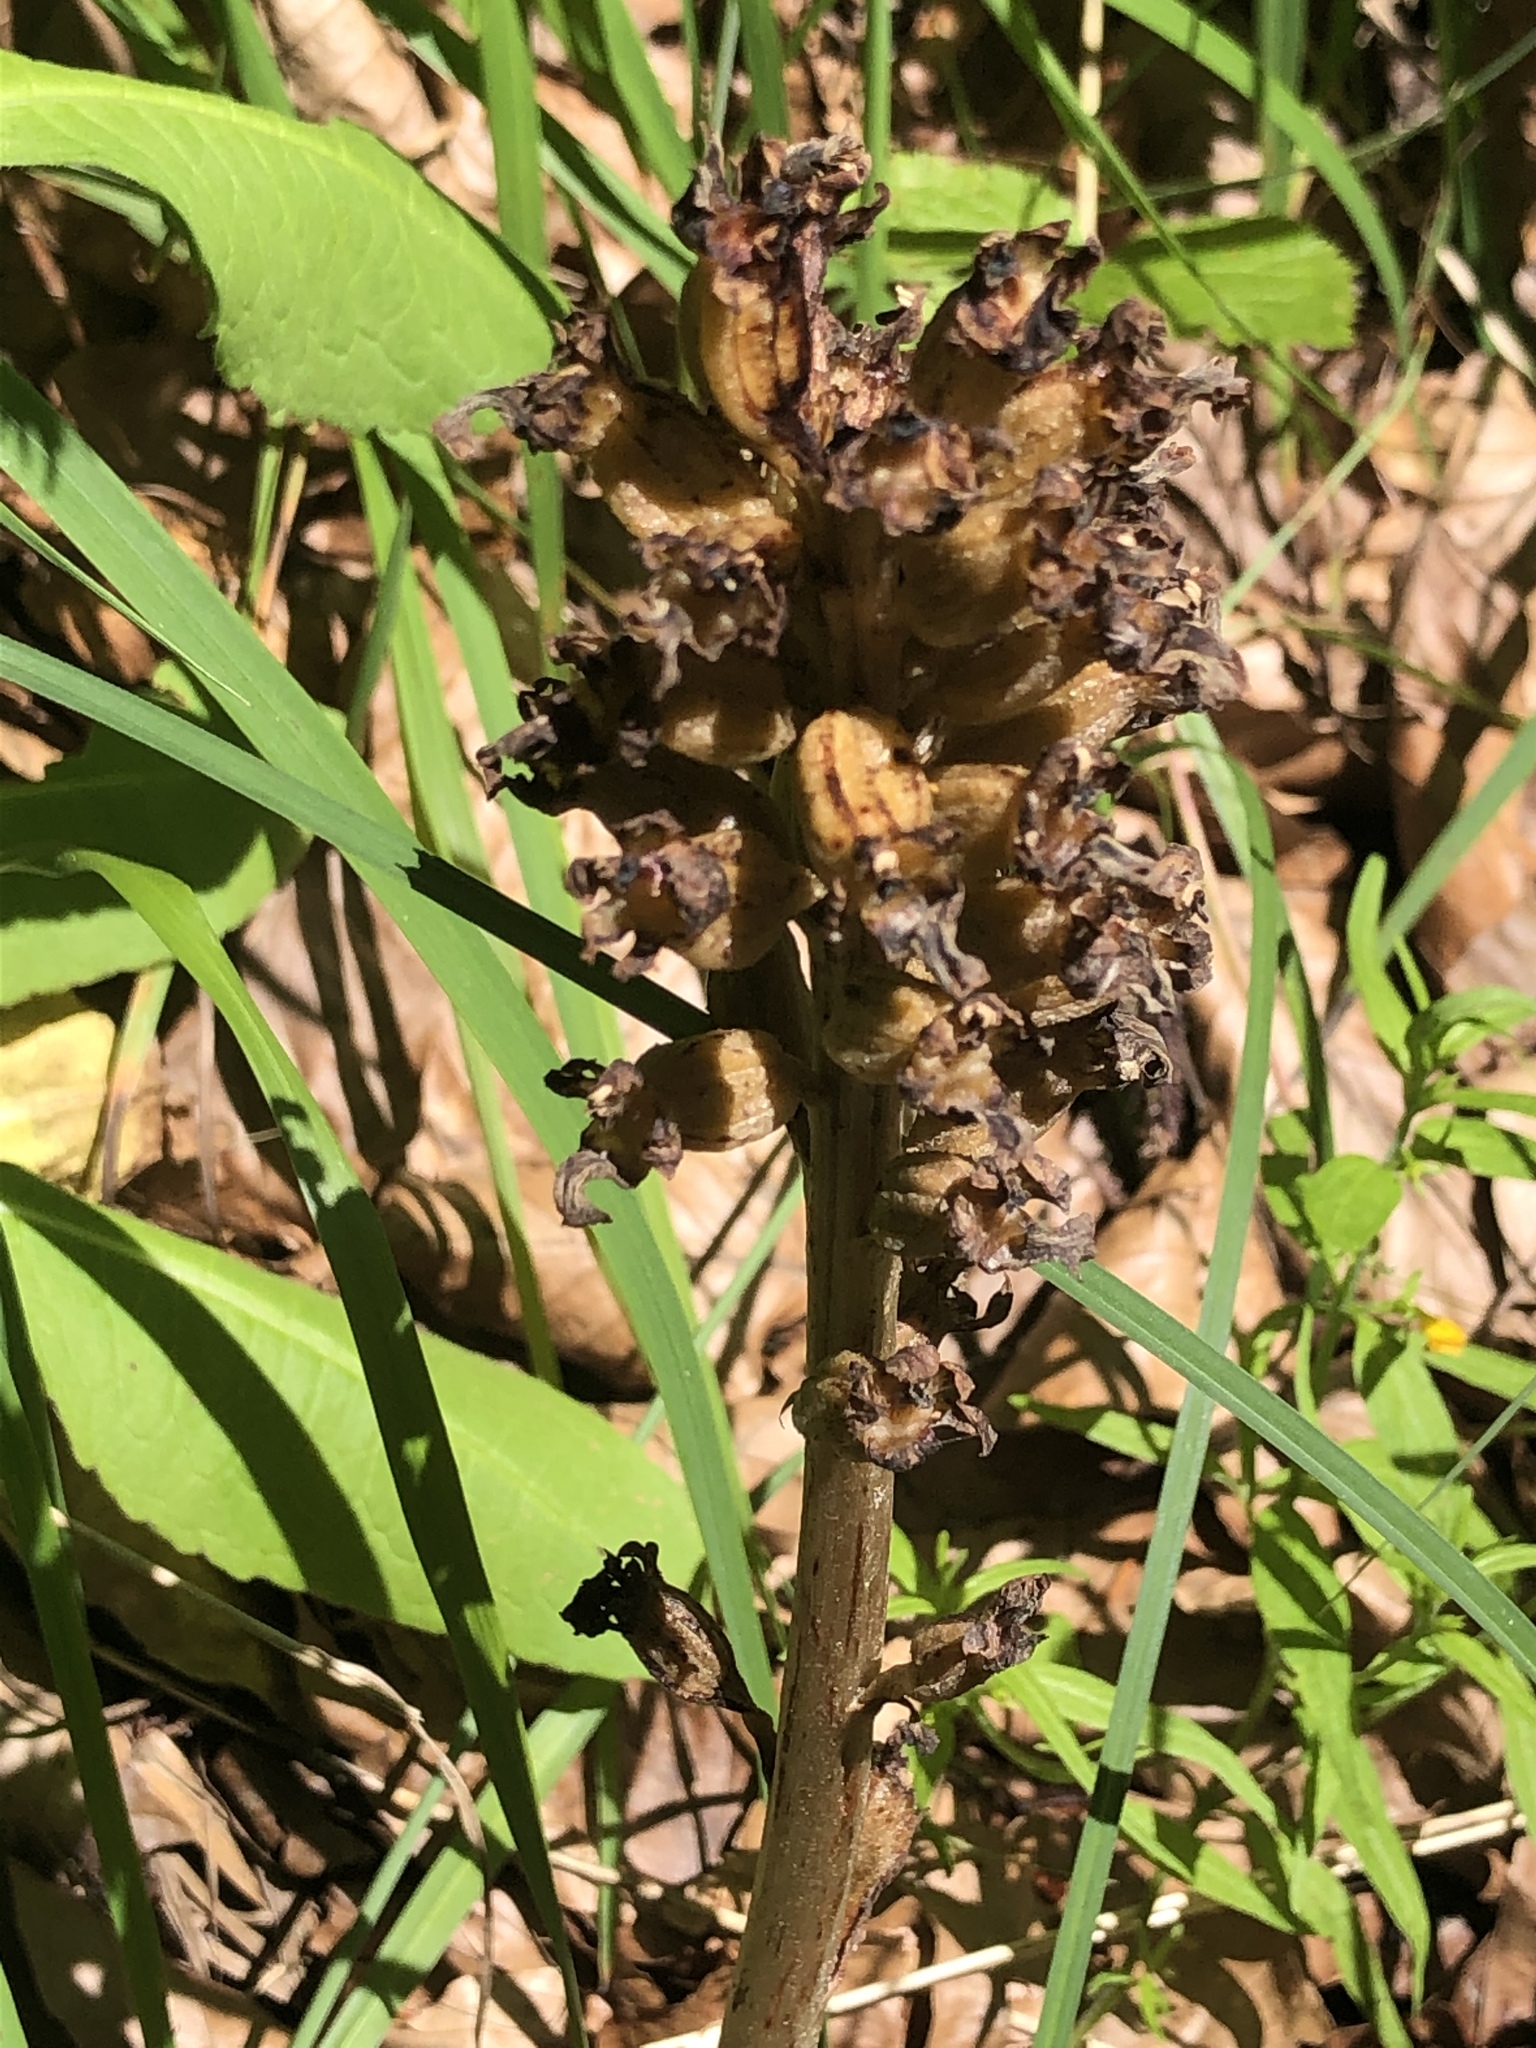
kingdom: Plantae
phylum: Tracheophyta
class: Liliopsida
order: Asparagales
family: Orchidaceae
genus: Neottia
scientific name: Neottia nidus-avis
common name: Bird's-nest orchid
